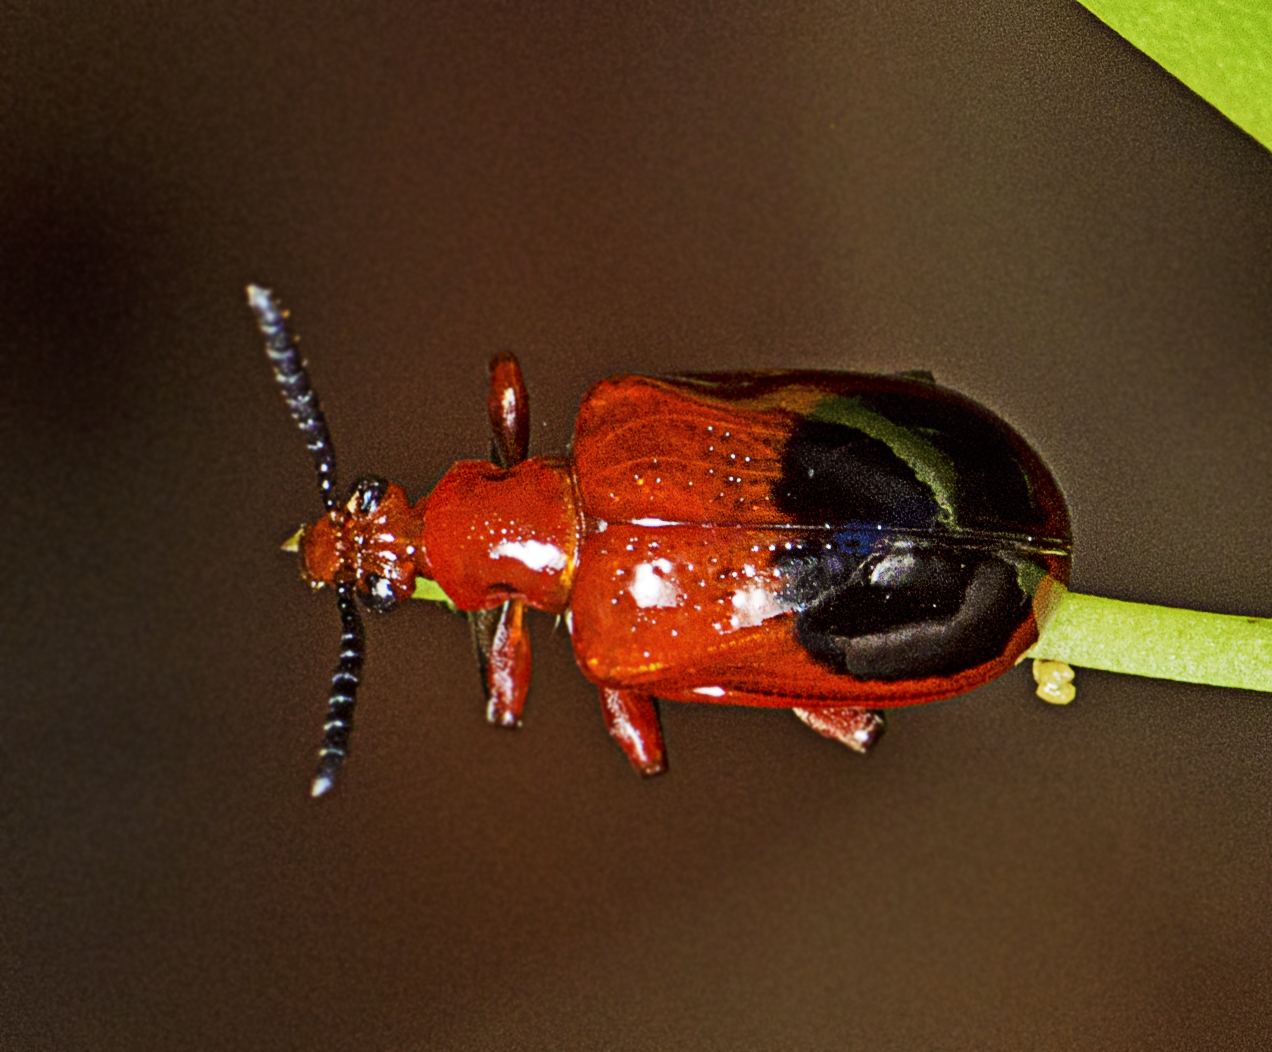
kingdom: Animalia
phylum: Arthropoda
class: Insecta
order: Coleoptera
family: Chrysomelidae
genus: Lilioceris
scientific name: Lilioceris
